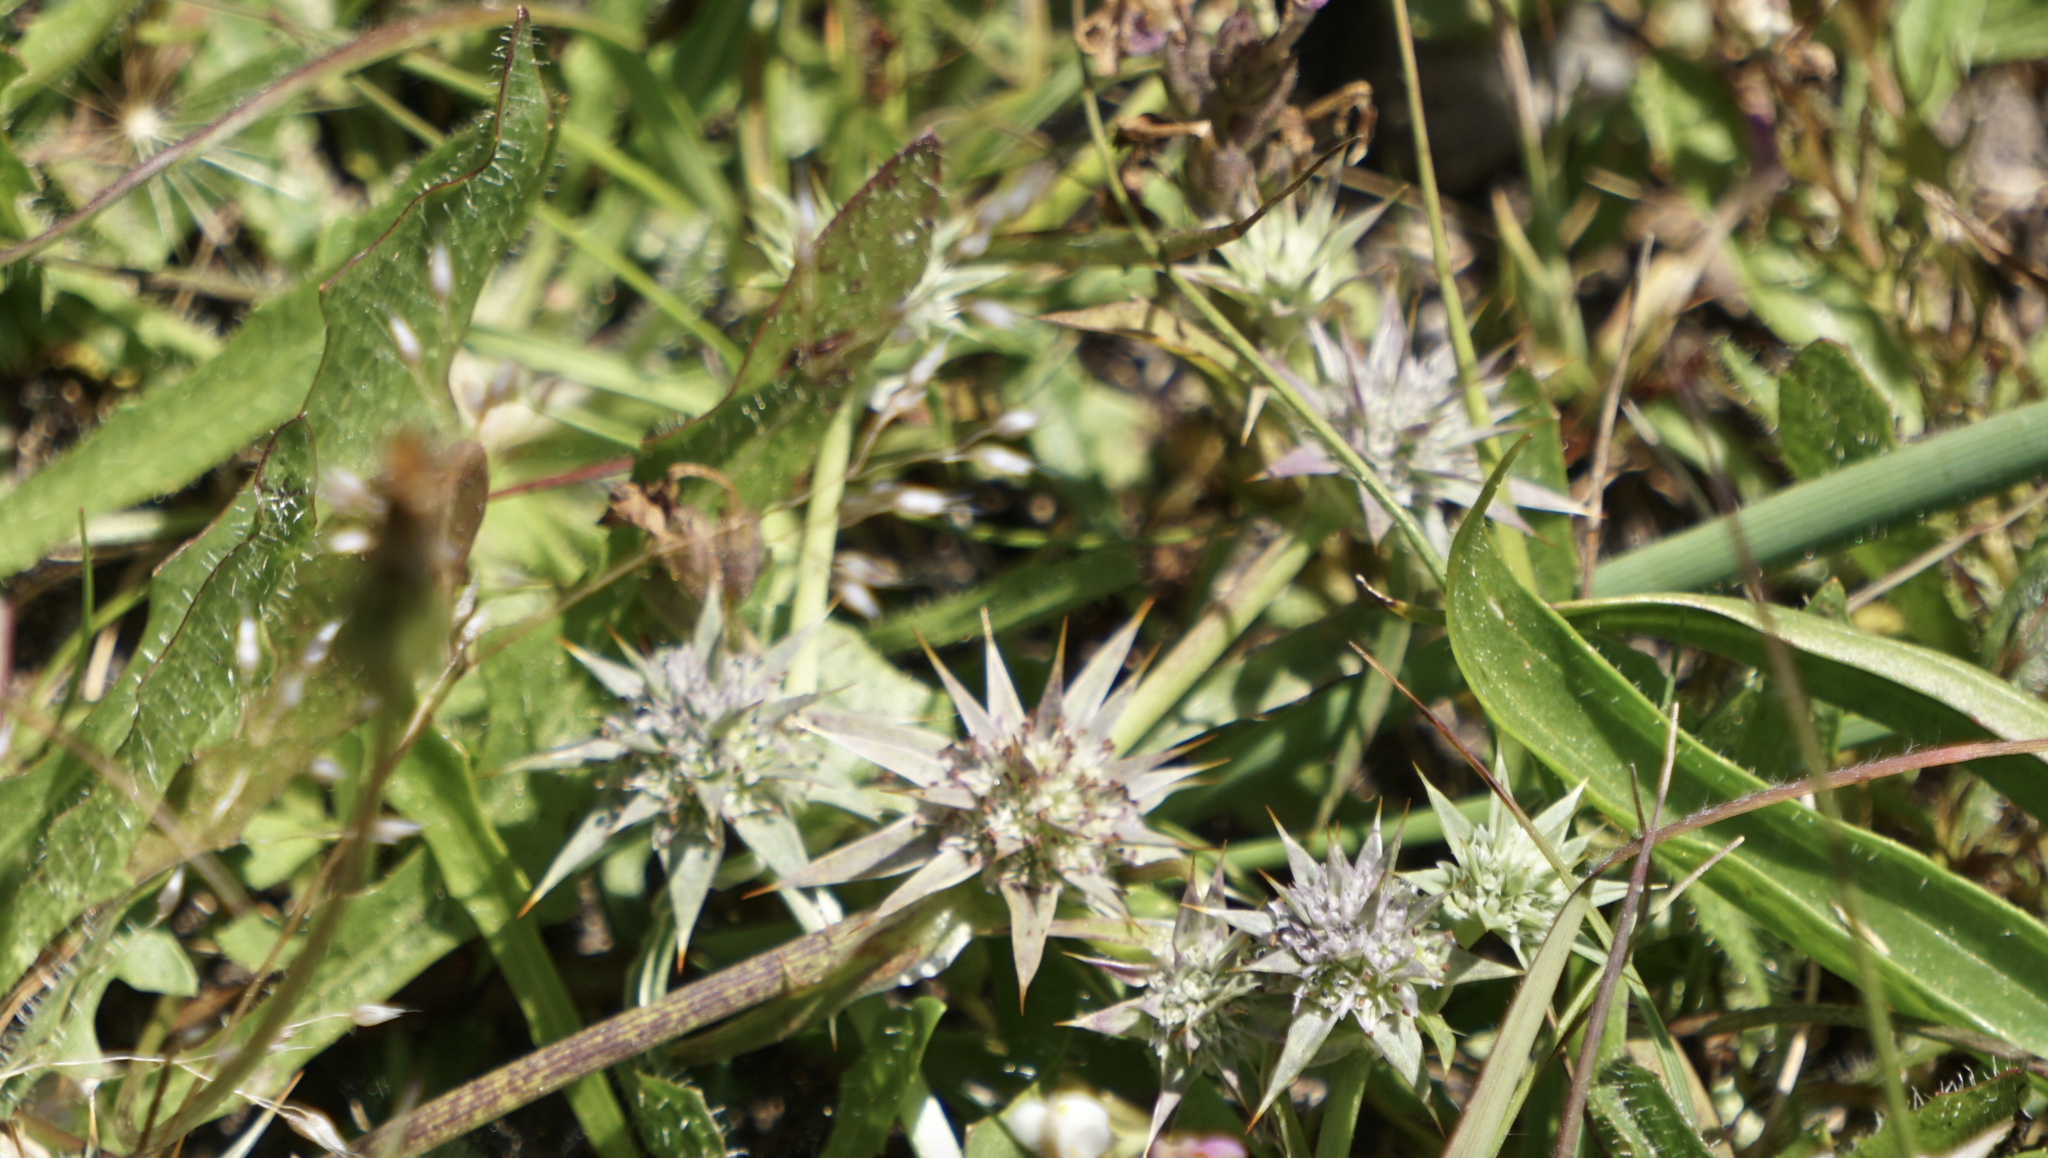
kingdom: Plantae
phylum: Tracheophyta
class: Magnoliopsida
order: Apiales
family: Apiaceae
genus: Eryngium
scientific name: Eryngium armatum
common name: Coyote thistle
